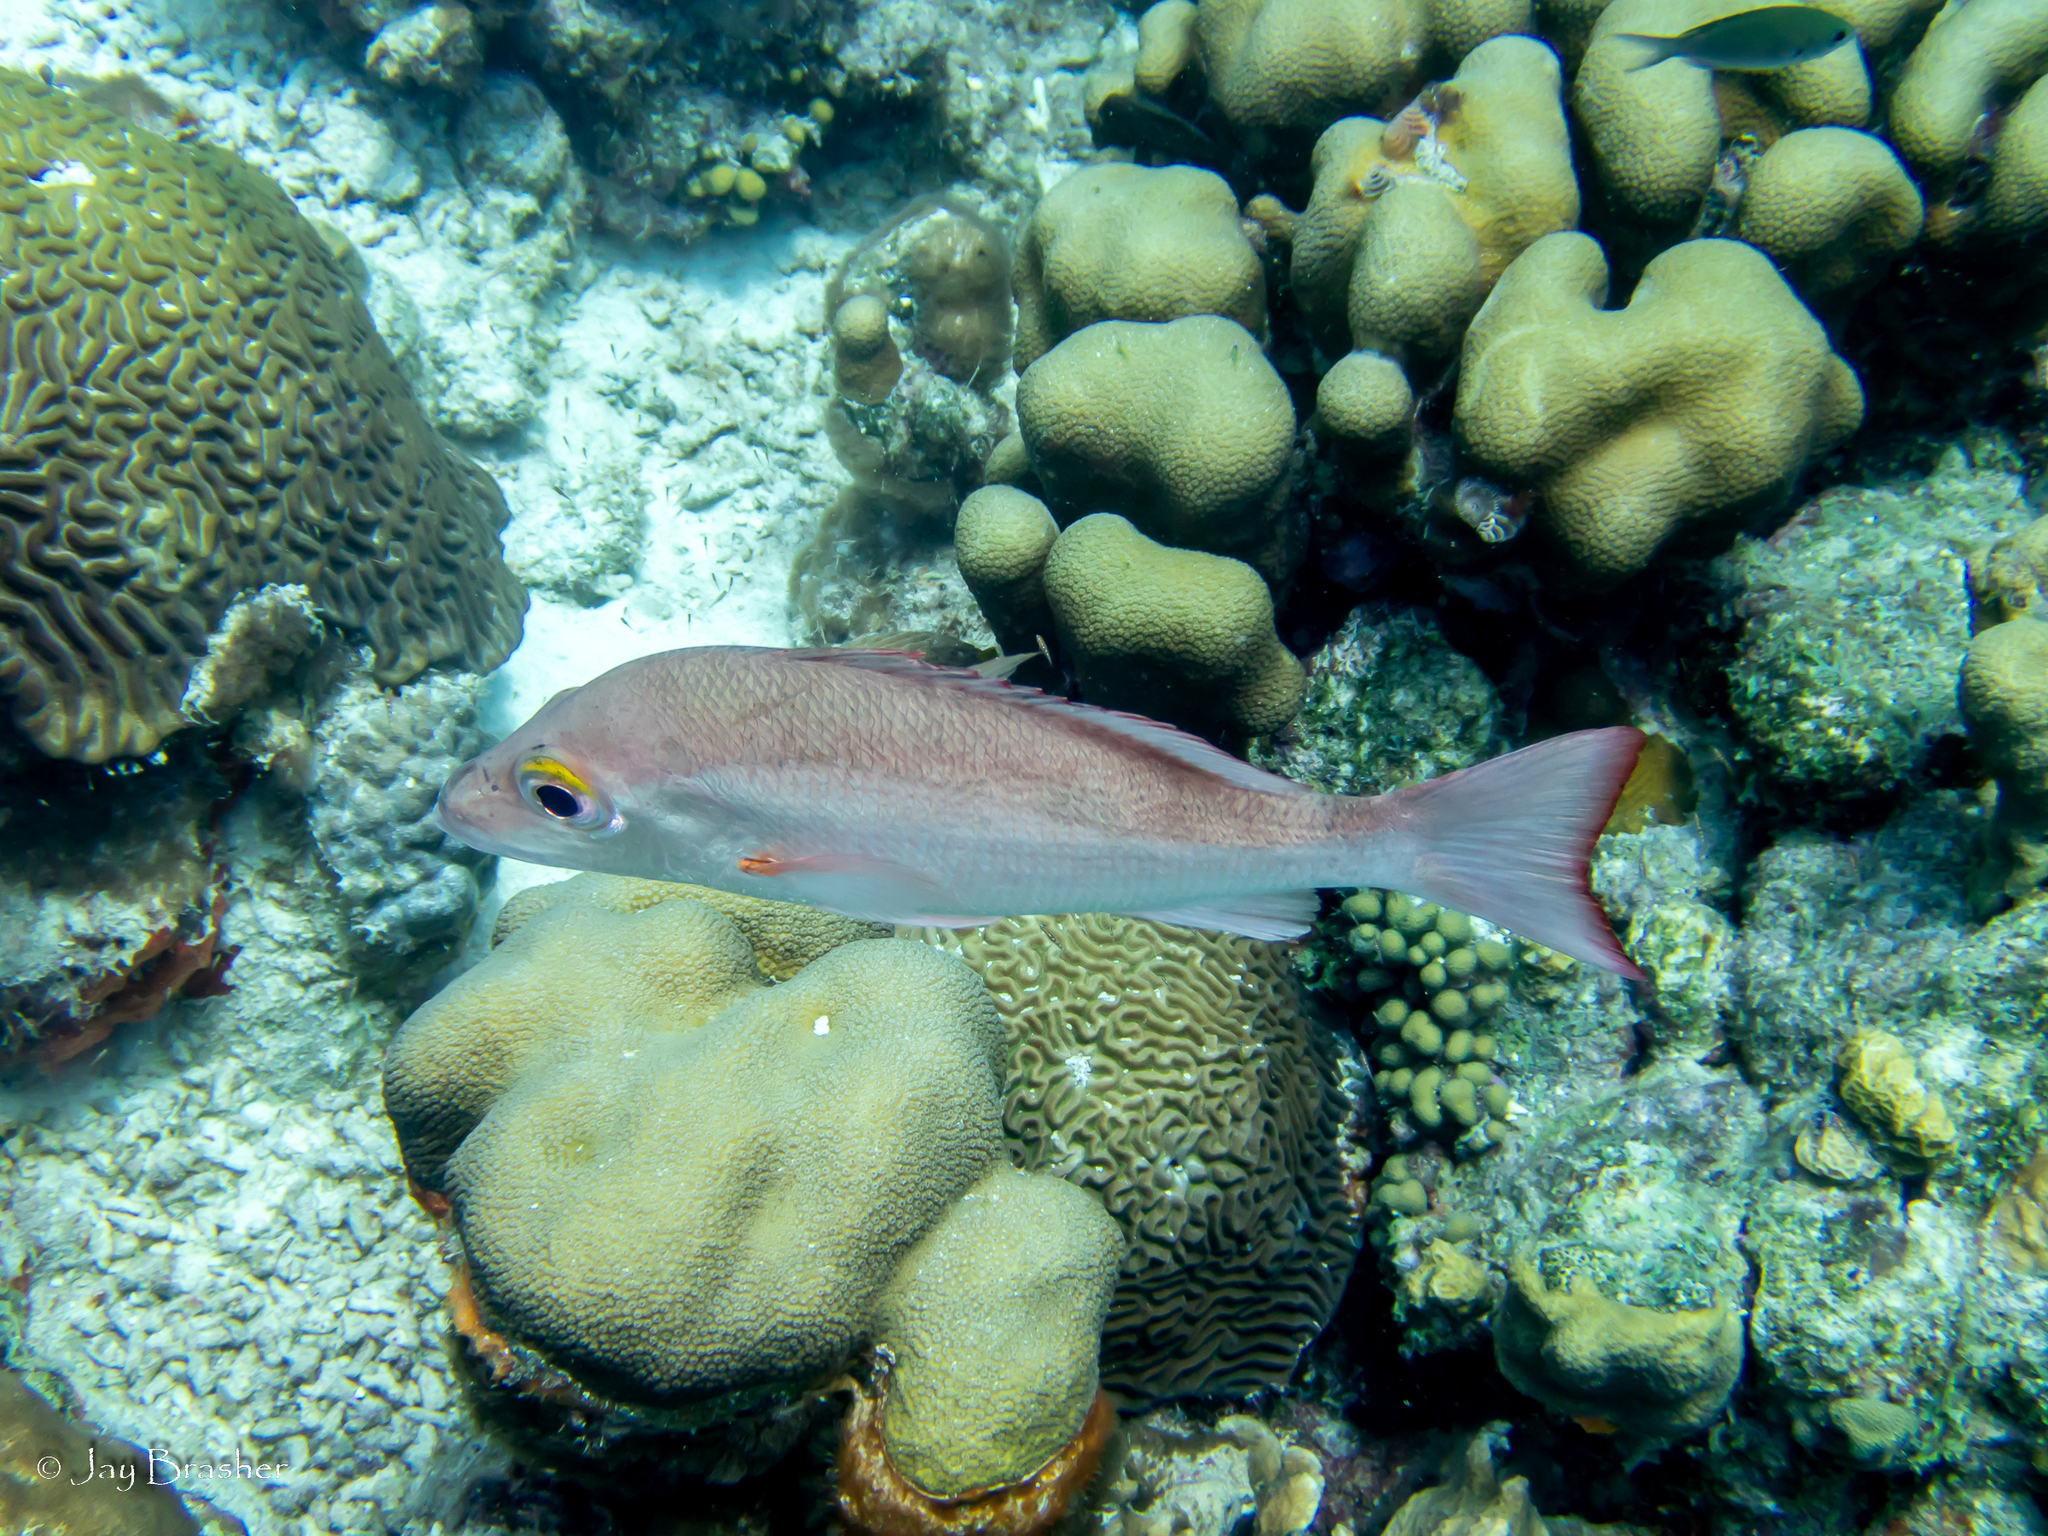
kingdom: Animalia
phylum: Cnidaria
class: Anthozoa
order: Scleractinia
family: Faviidae
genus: Colpophyllia
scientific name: Colpophyllia natans
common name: Boulder brain coral
